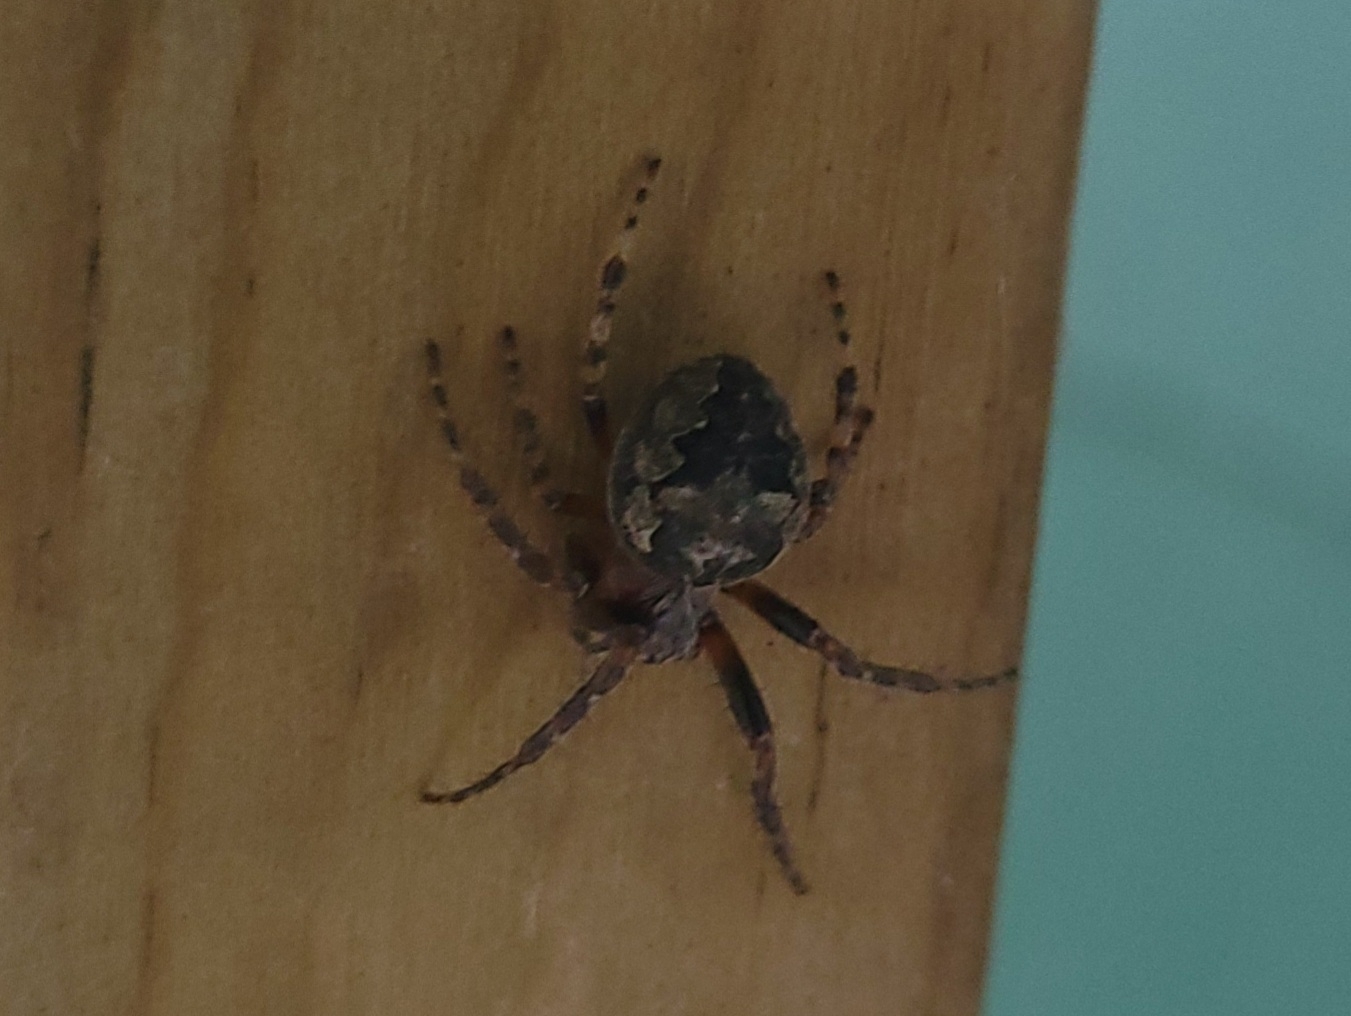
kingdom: Animalia
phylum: Arthropoda
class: Arachnida
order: Araneae
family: Araneidae
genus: Larinioides
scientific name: Larinioides patagiatus
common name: Ornamental orbweaver
